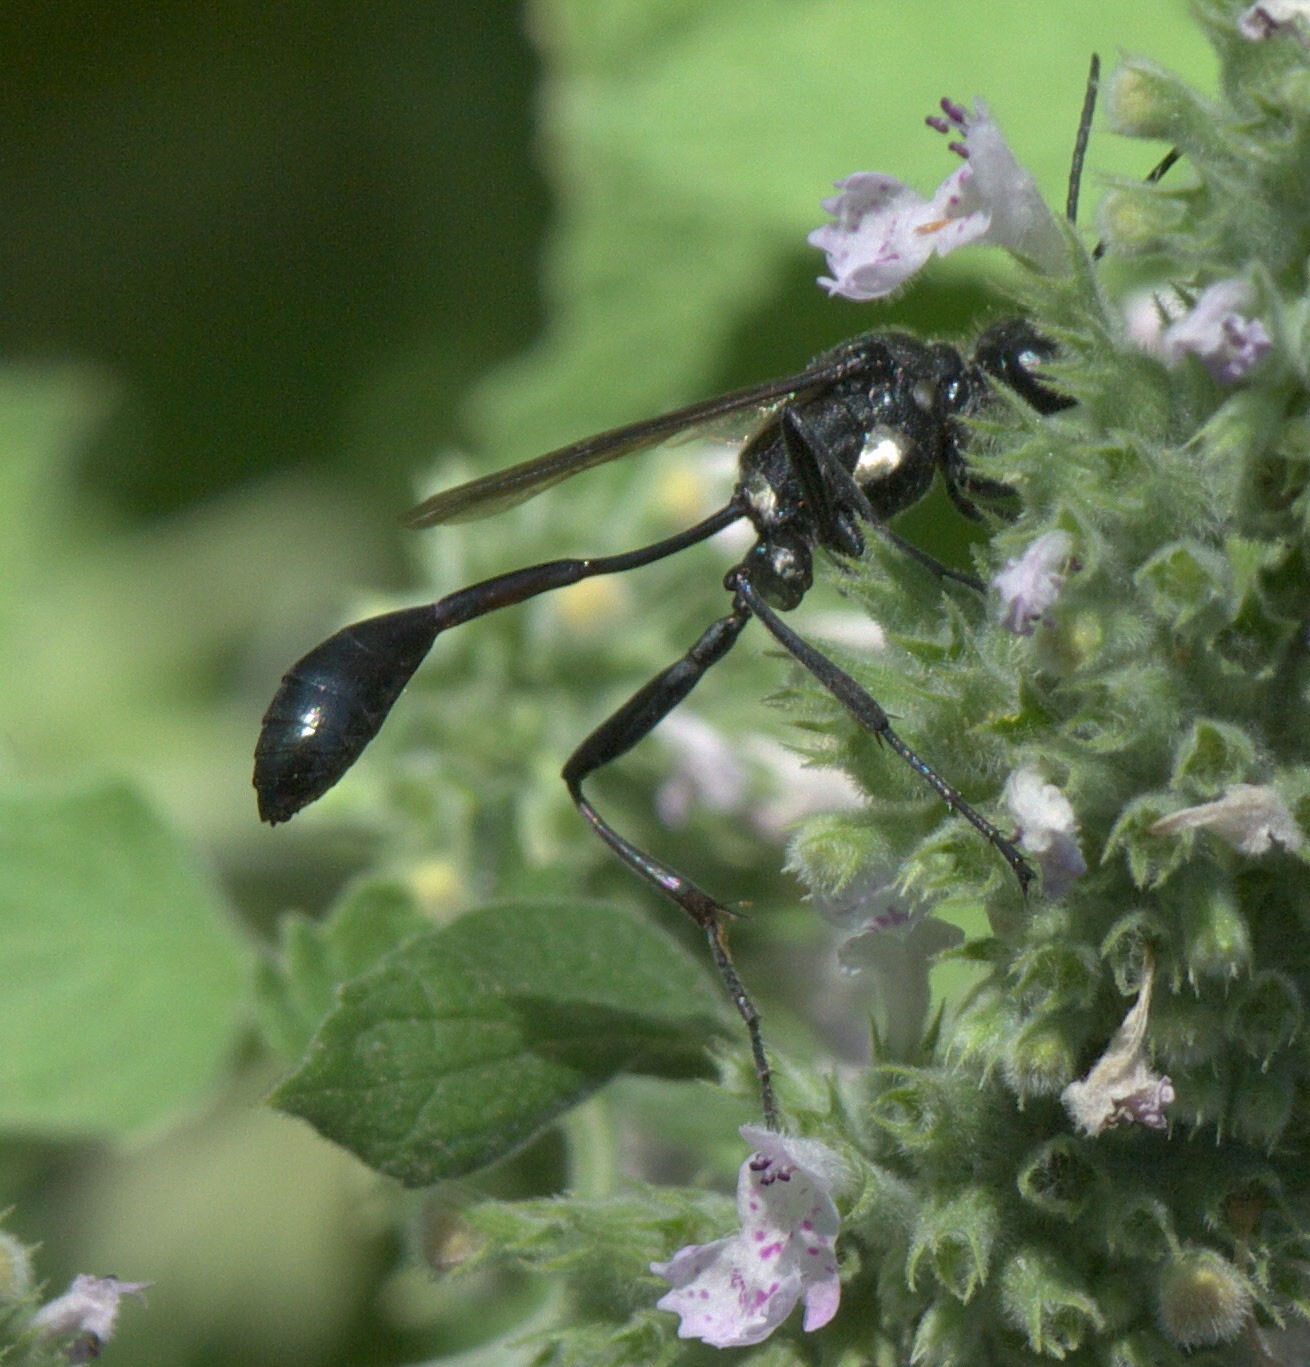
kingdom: Animalia
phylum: Arthropoda
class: Insecta
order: Hymenoptera
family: Sphecidae
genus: Eremnophila
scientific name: Eremnophila aureonotata
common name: Gold-marked thread-waisted wasp
